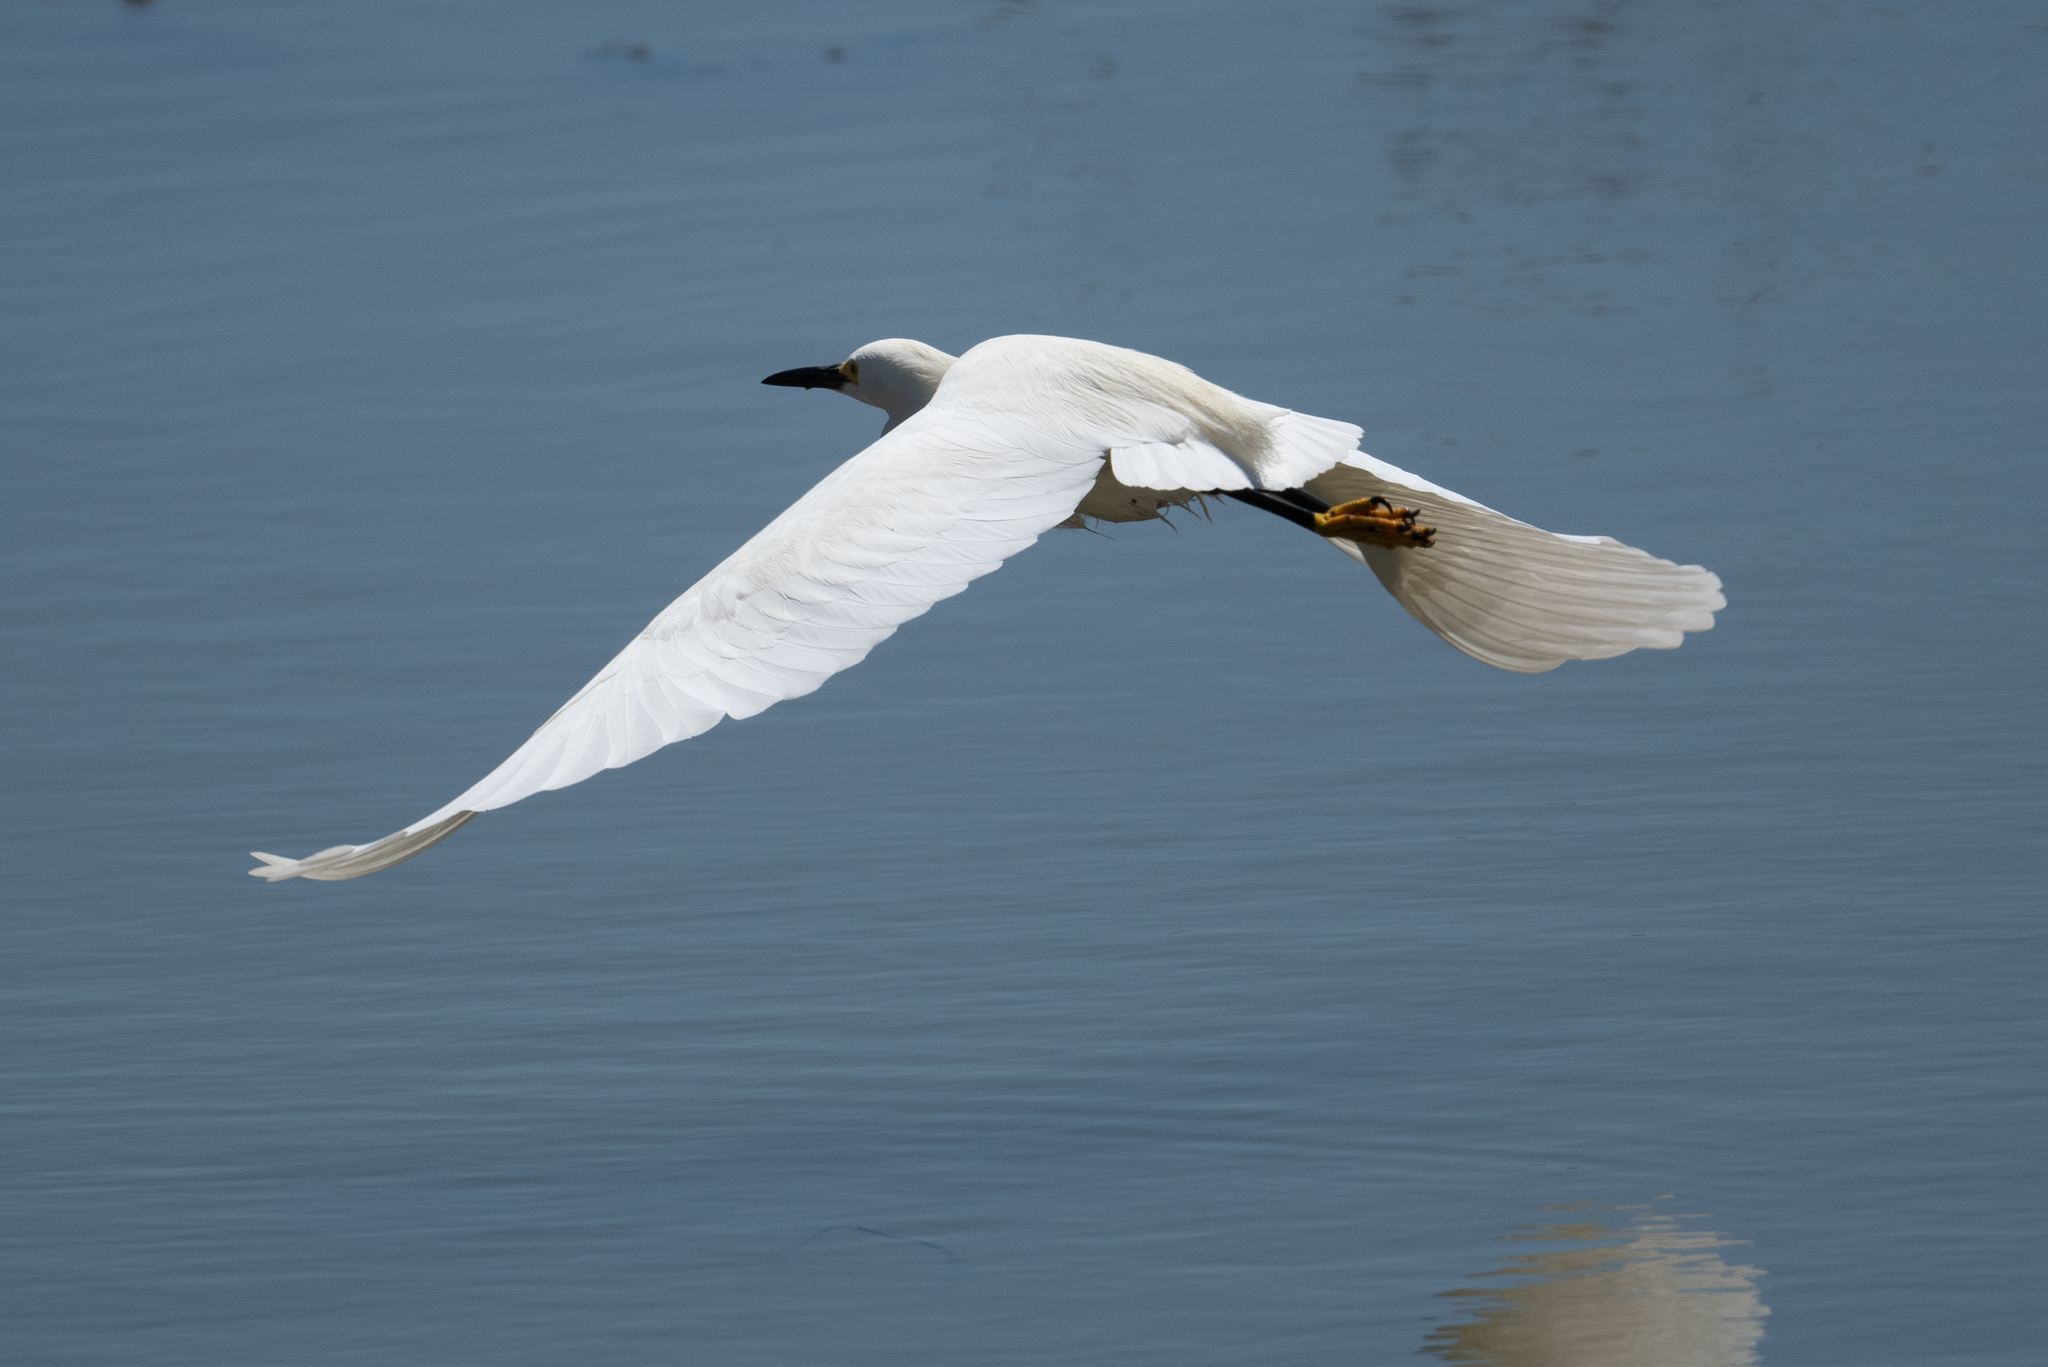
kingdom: Animalia
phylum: Chordata
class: Aves
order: Pelecaniformes
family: Ardeidae
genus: Egretta
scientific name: Egretta thula
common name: Snowy egret
